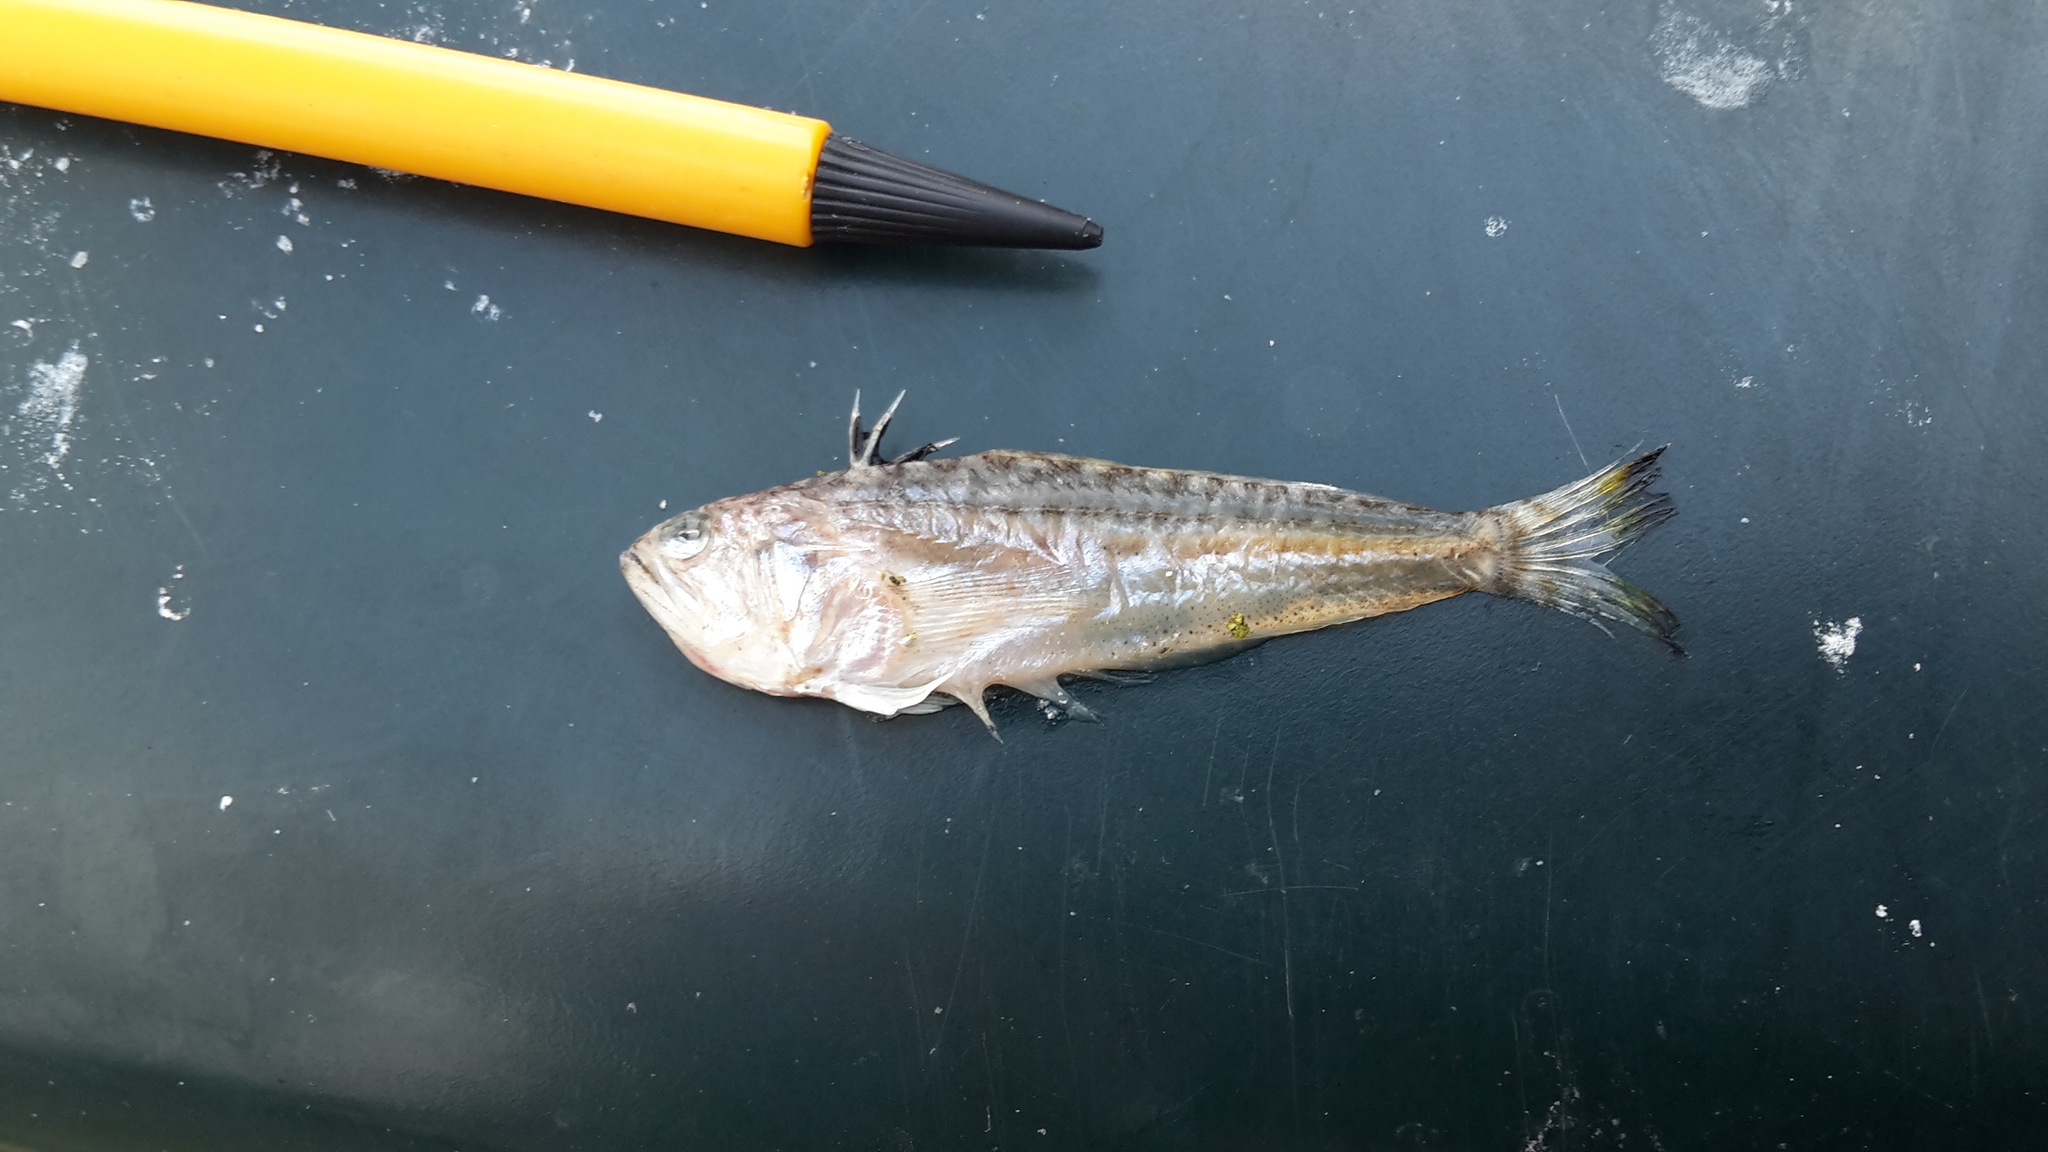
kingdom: Animalia
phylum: Chordata
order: Perciformes
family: Trachinidae
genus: Echiichthys
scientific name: Echiichthys vipera
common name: Lesser weever
